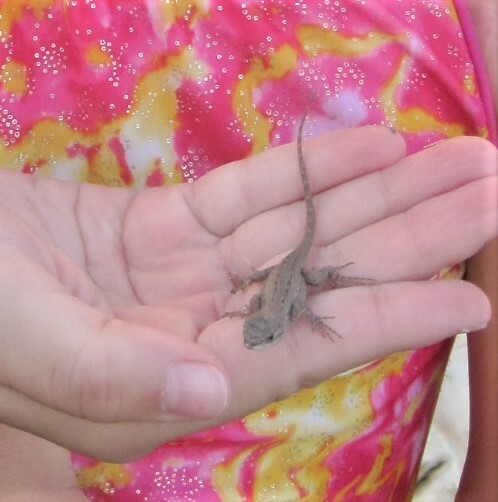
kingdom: Animalia
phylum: Chordata
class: Squamata
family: Phrynosomatidae
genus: Sceloporus
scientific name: Sceloporus occidentalis
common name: Western fence lizard
